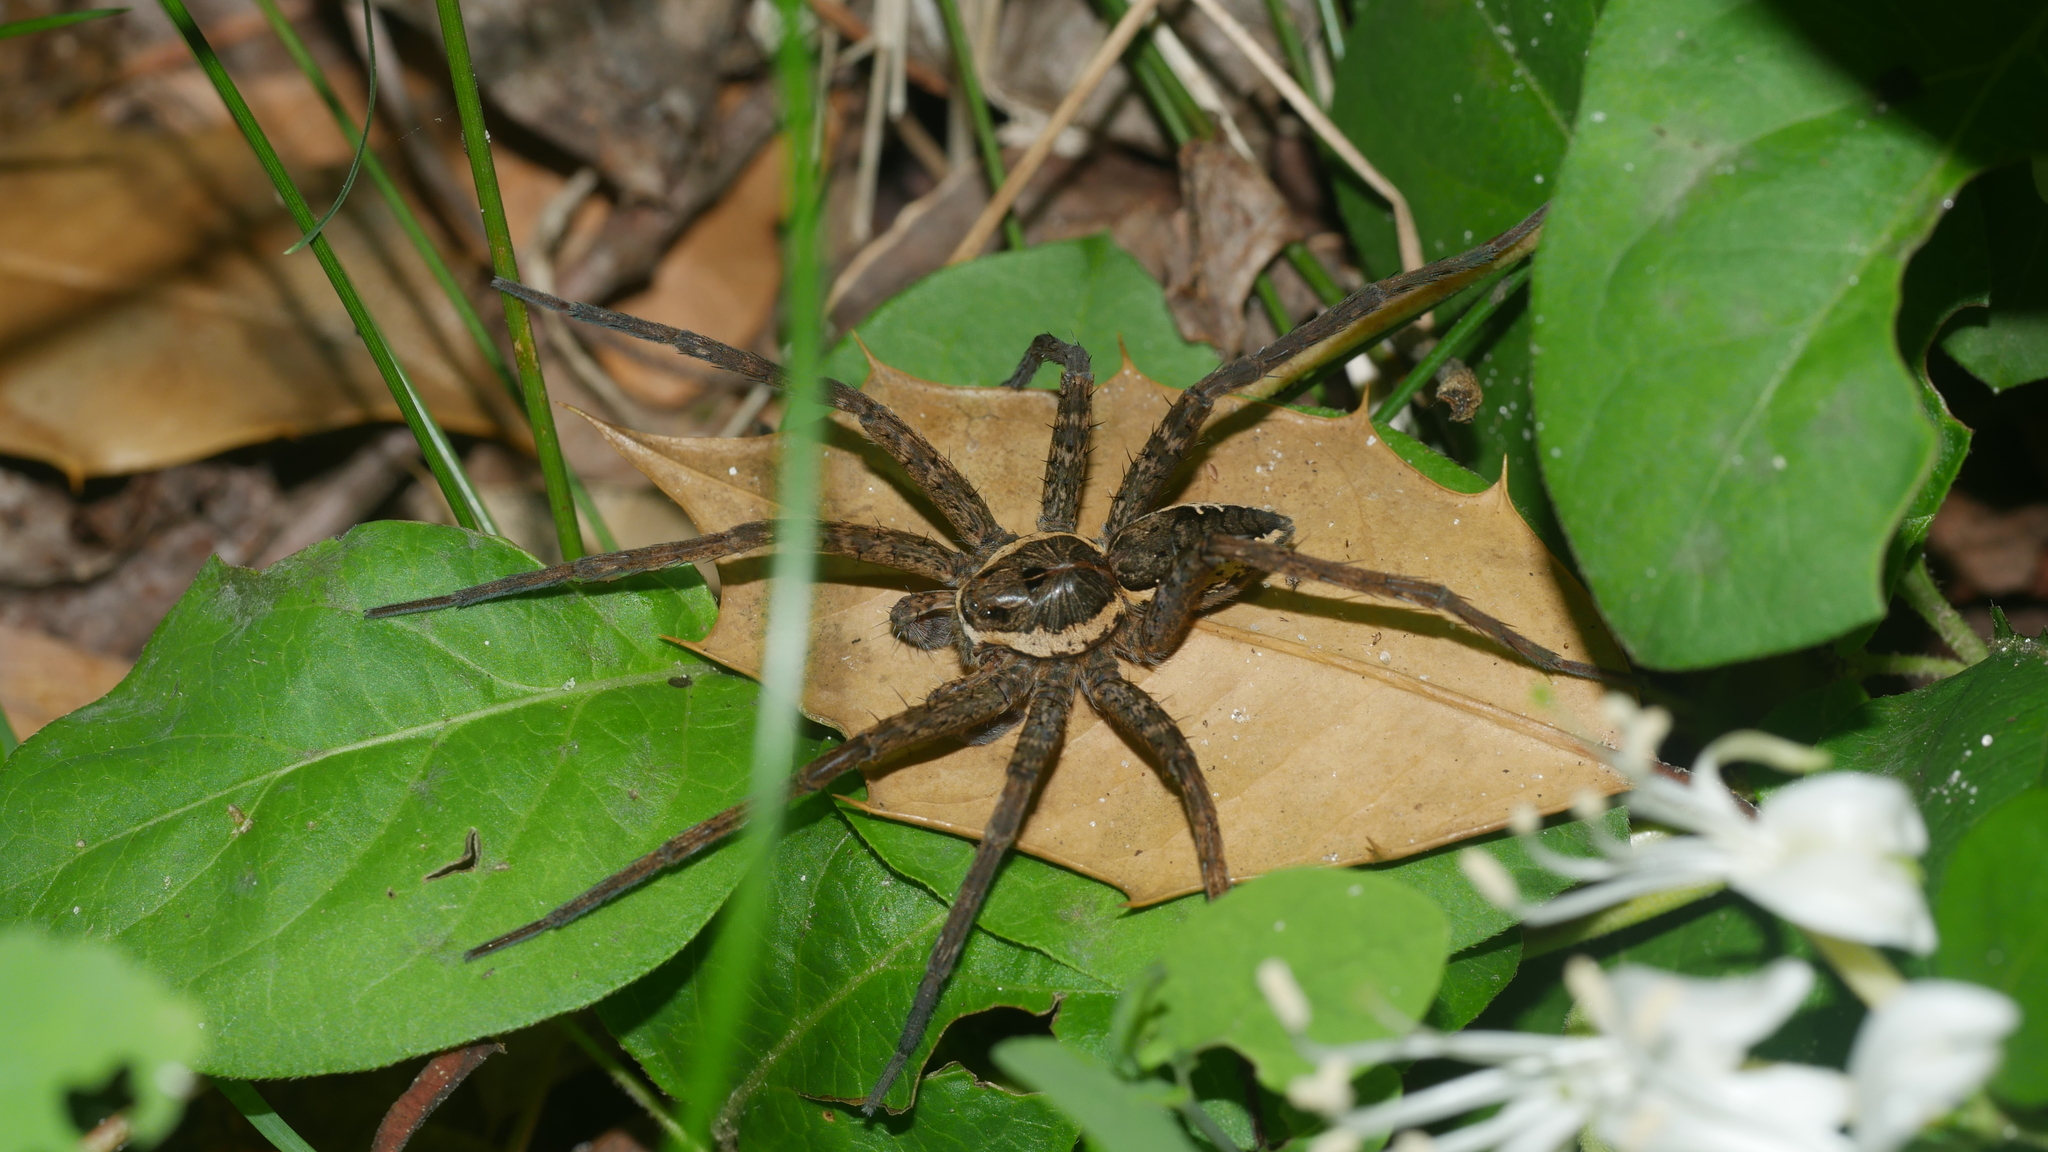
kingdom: Animalia
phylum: Arthropoda
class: Arachnida
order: Araneae
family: Pisauridae
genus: Dolomedes
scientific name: Dolomedes vittatus
